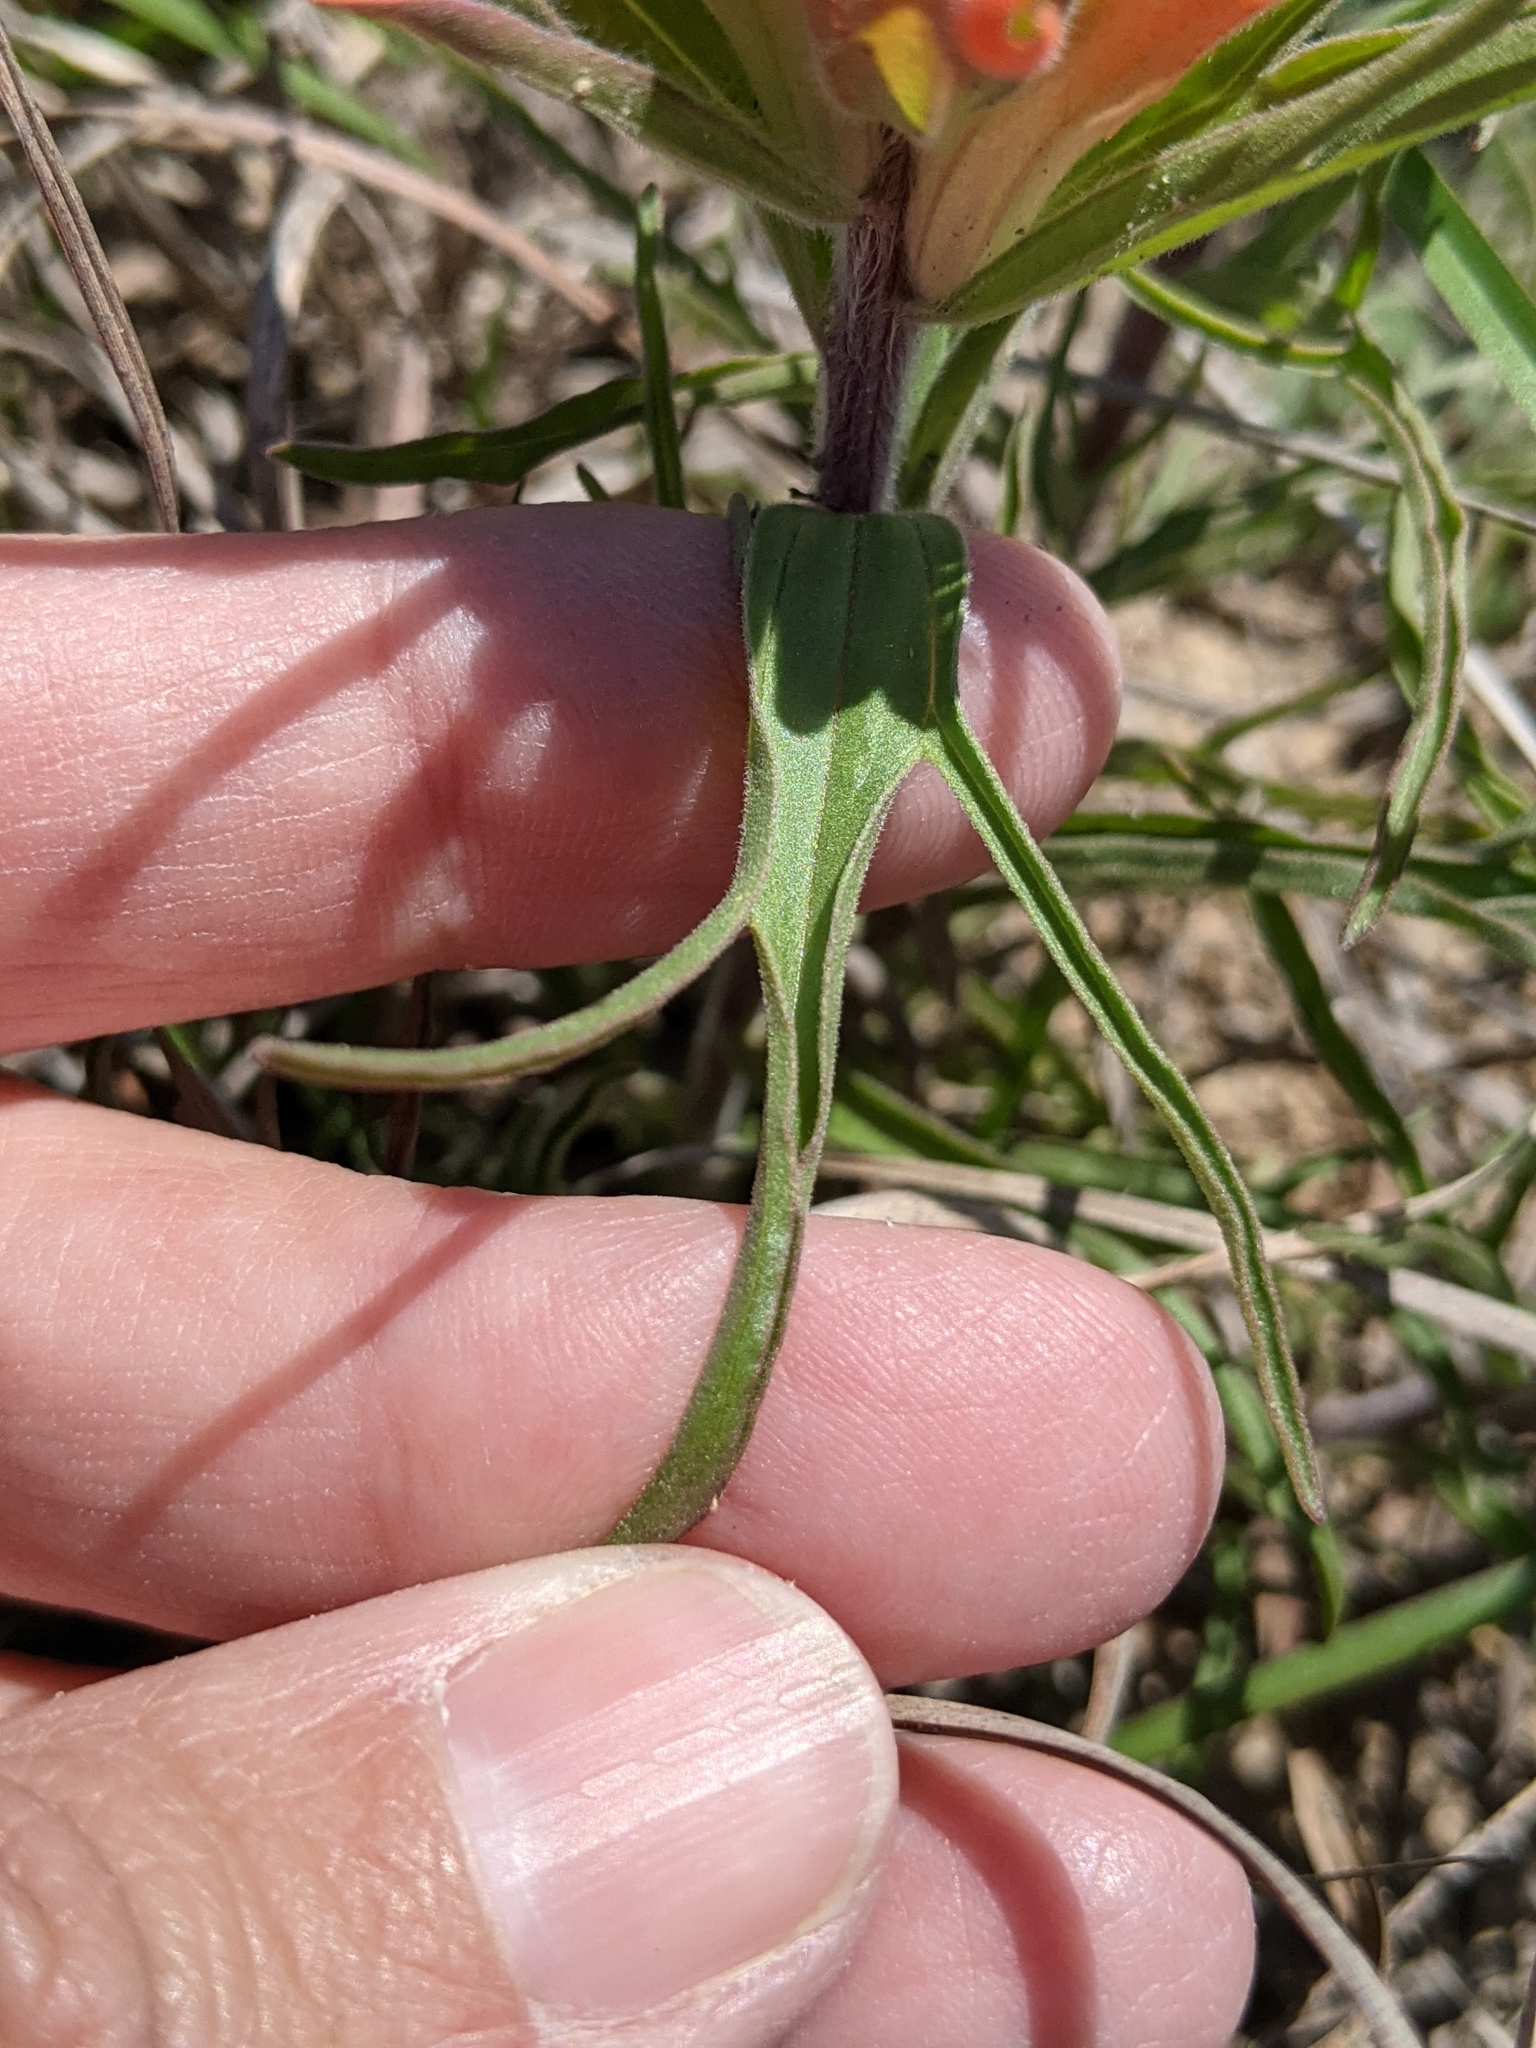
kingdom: Plantae
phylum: Tracheophyta
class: Magnoliopsida
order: Lamiales
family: Orobanchaceae
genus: Castilleja
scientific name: Castilleja lindheimeri
